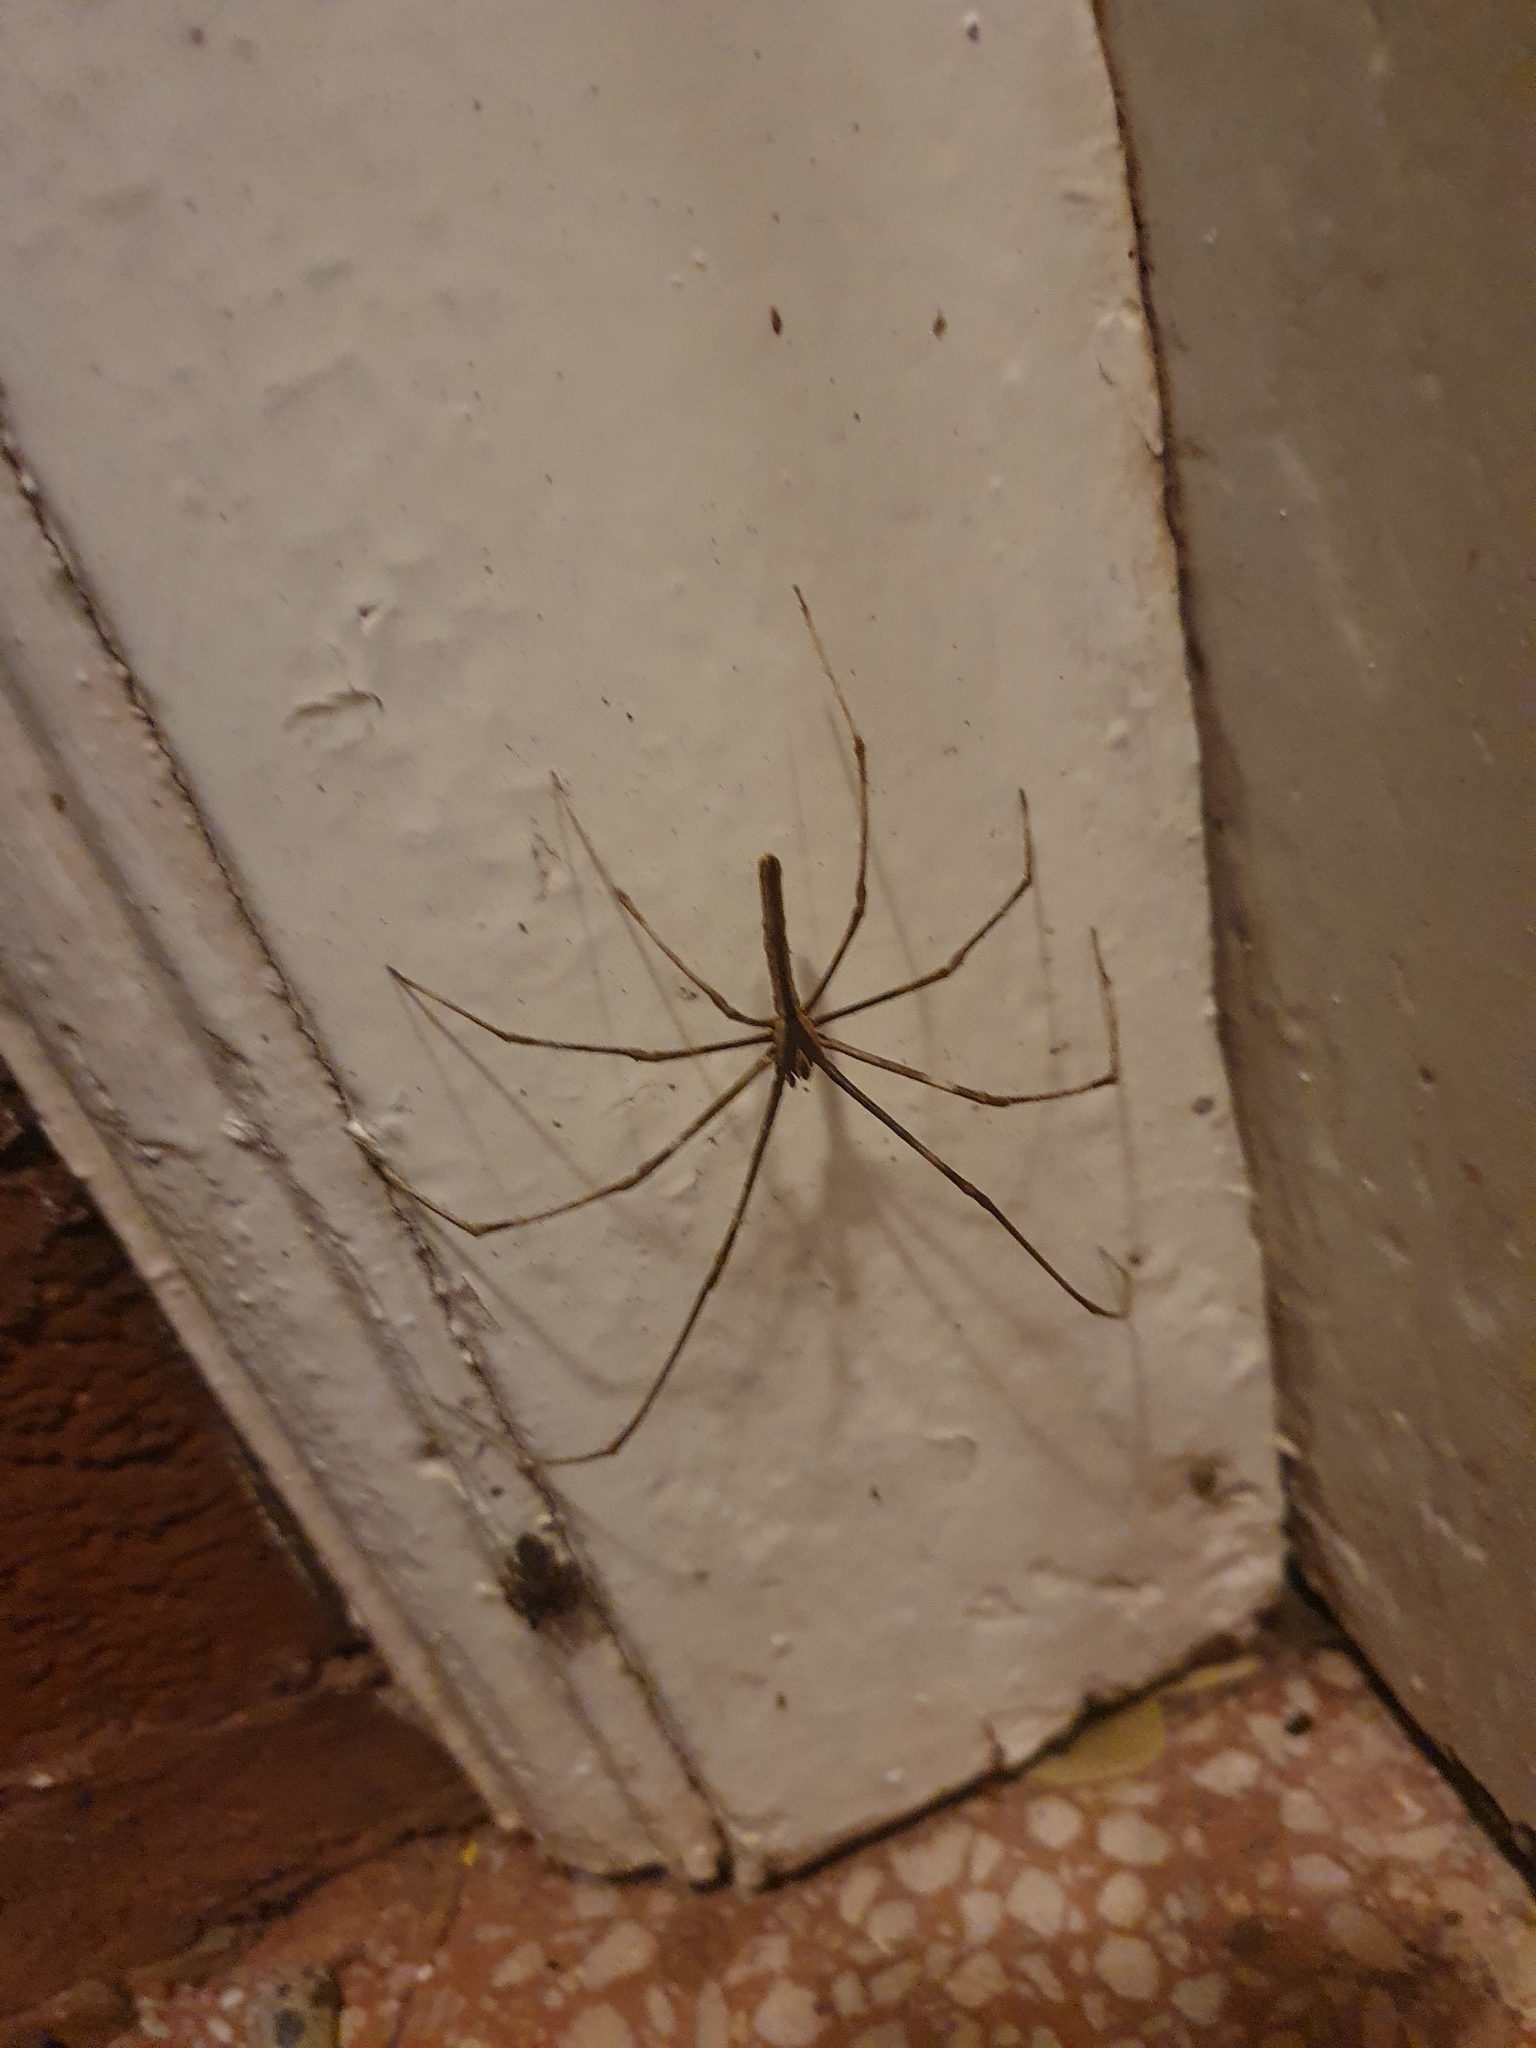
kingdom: Animalia
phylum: Arthropoda
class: Arachnida
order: Araneae
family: Deinopidae
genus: Deinopis
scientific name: Deinopis subrufa
